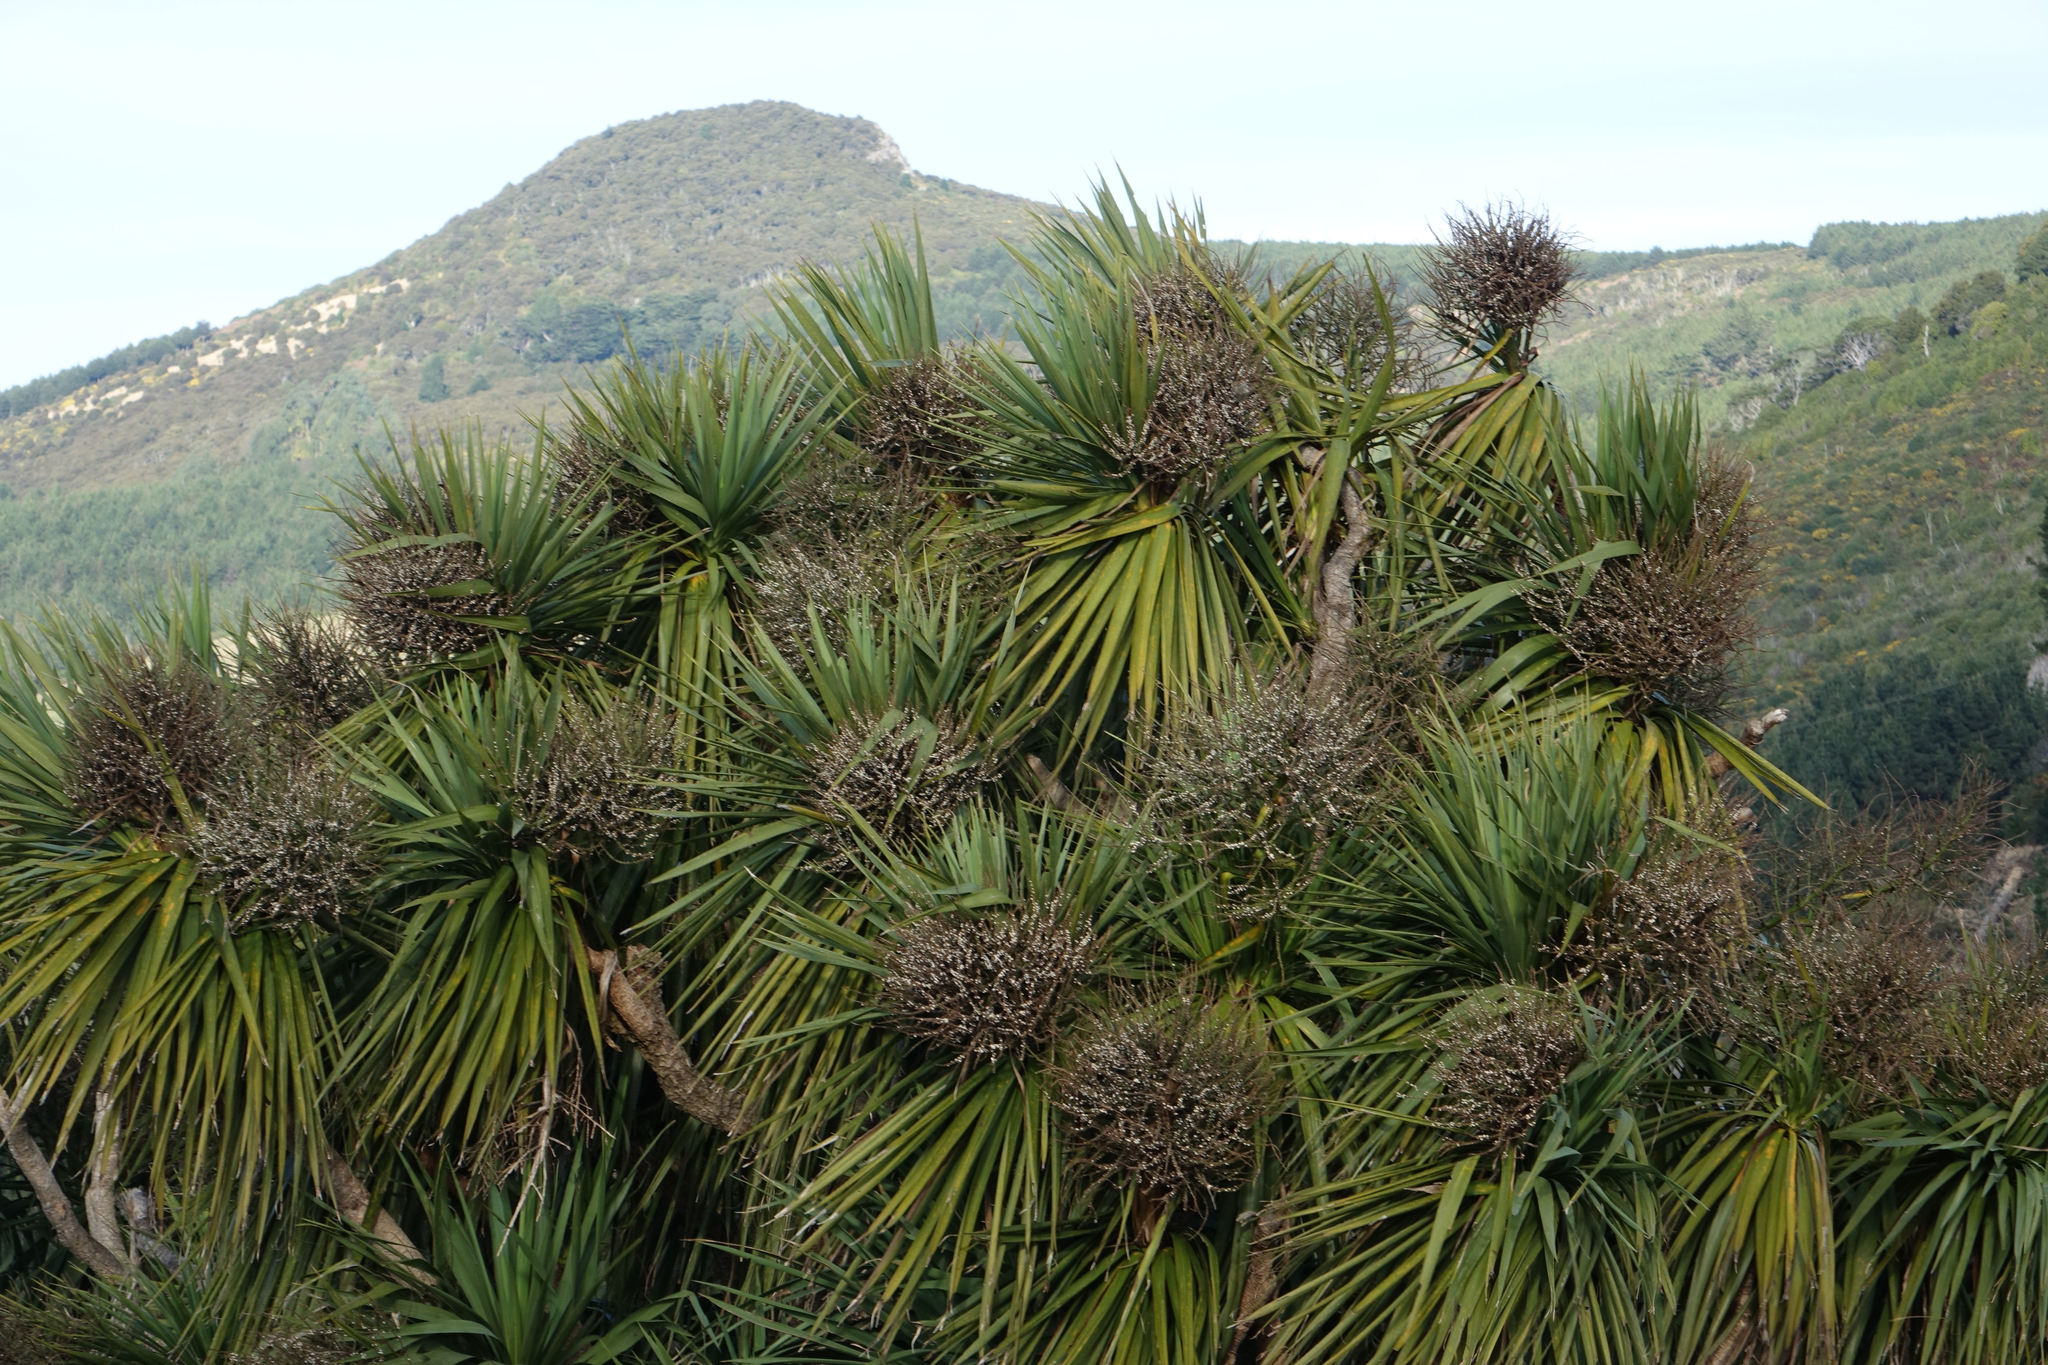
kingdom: Plantae
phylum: Tracheophyta
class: Liliopsida
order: Asparagales
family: Asparagaceae
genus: Cordyline
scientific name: Cordyline australis
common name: Cabbage-palm
